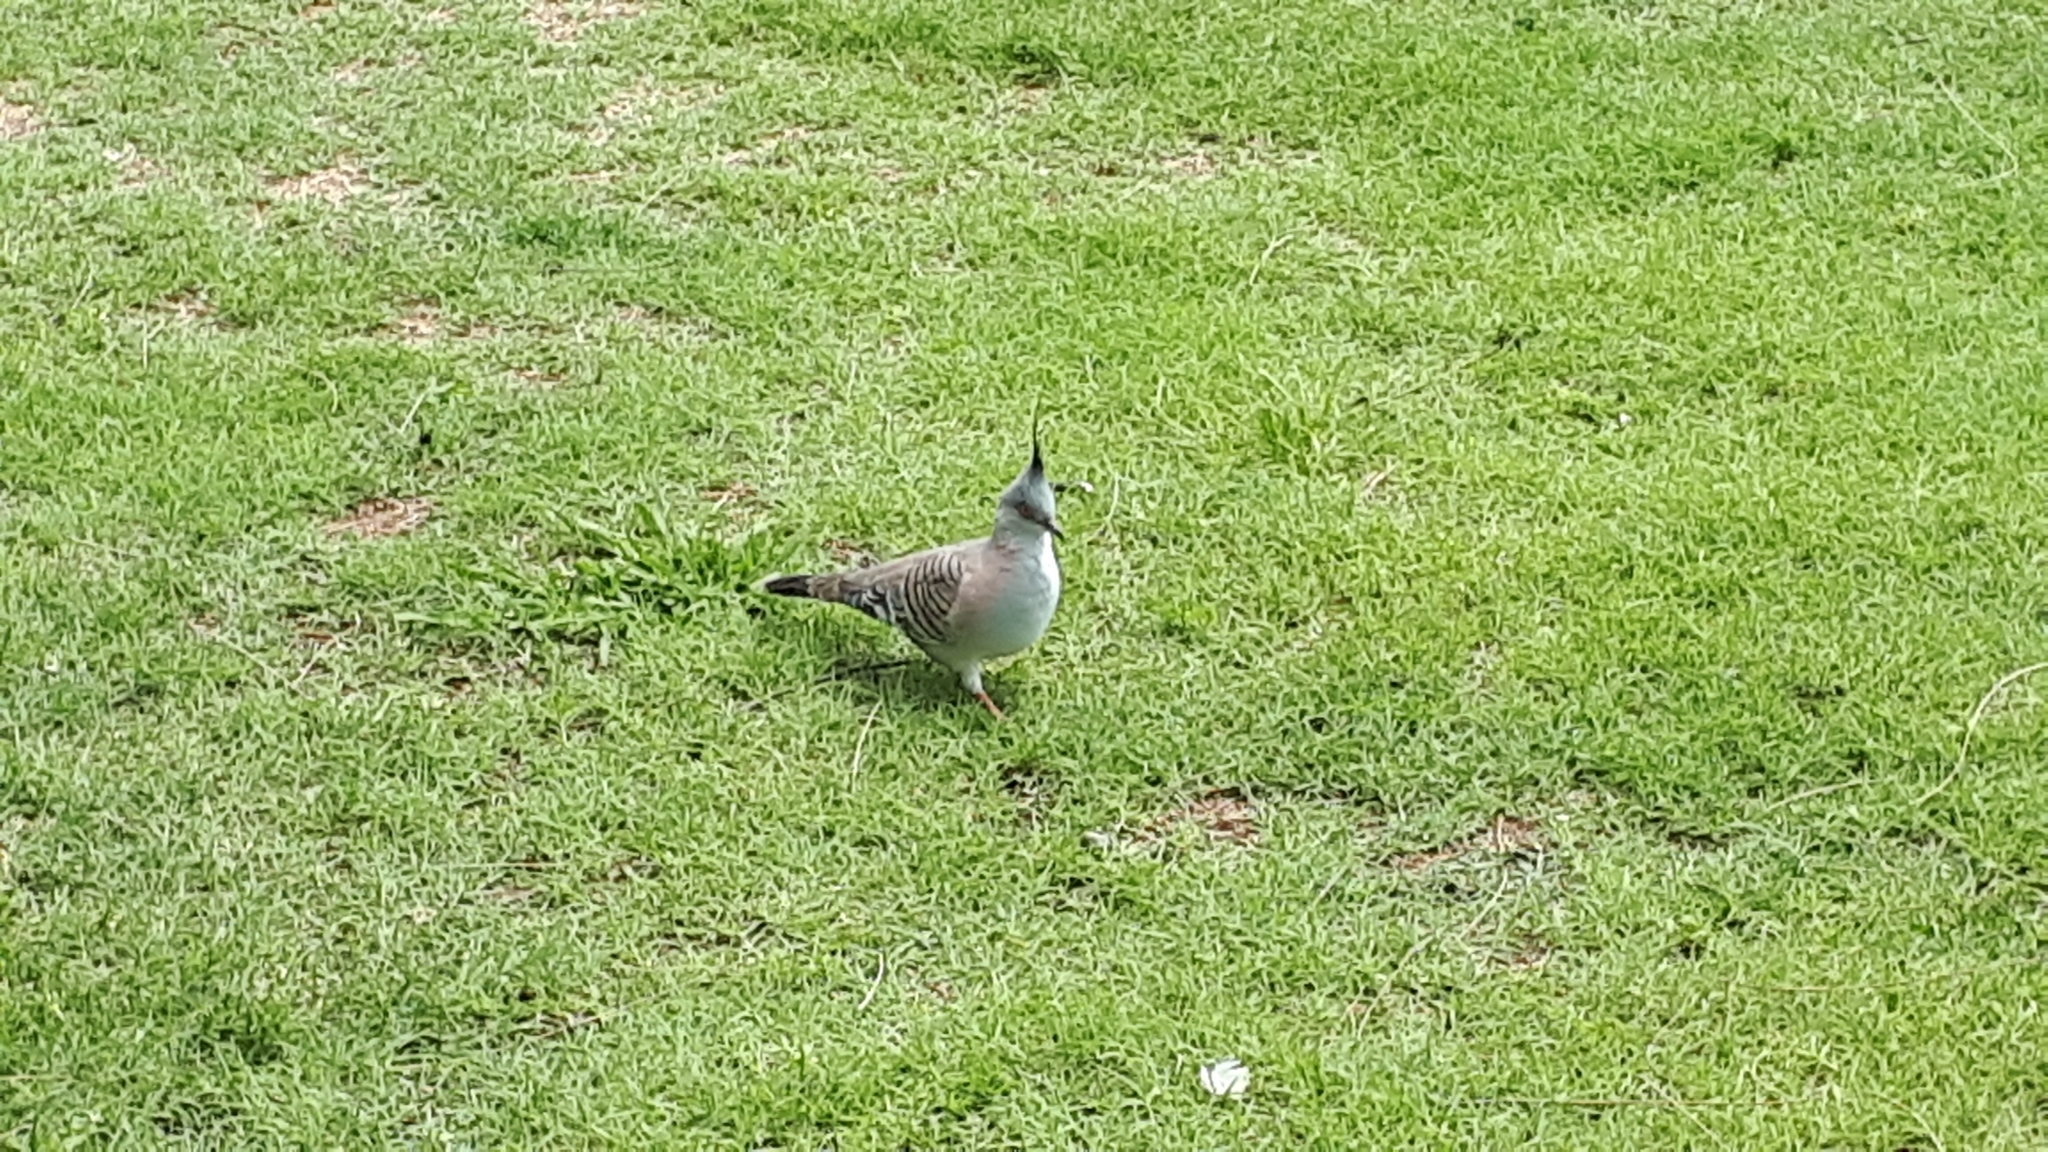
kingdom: Animalia
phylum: Chordata
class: Aves
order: Columbiformes
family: Columbidae
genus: Ocyphaps
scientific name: Ocyphaps lophotes
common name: Crested pigeon
